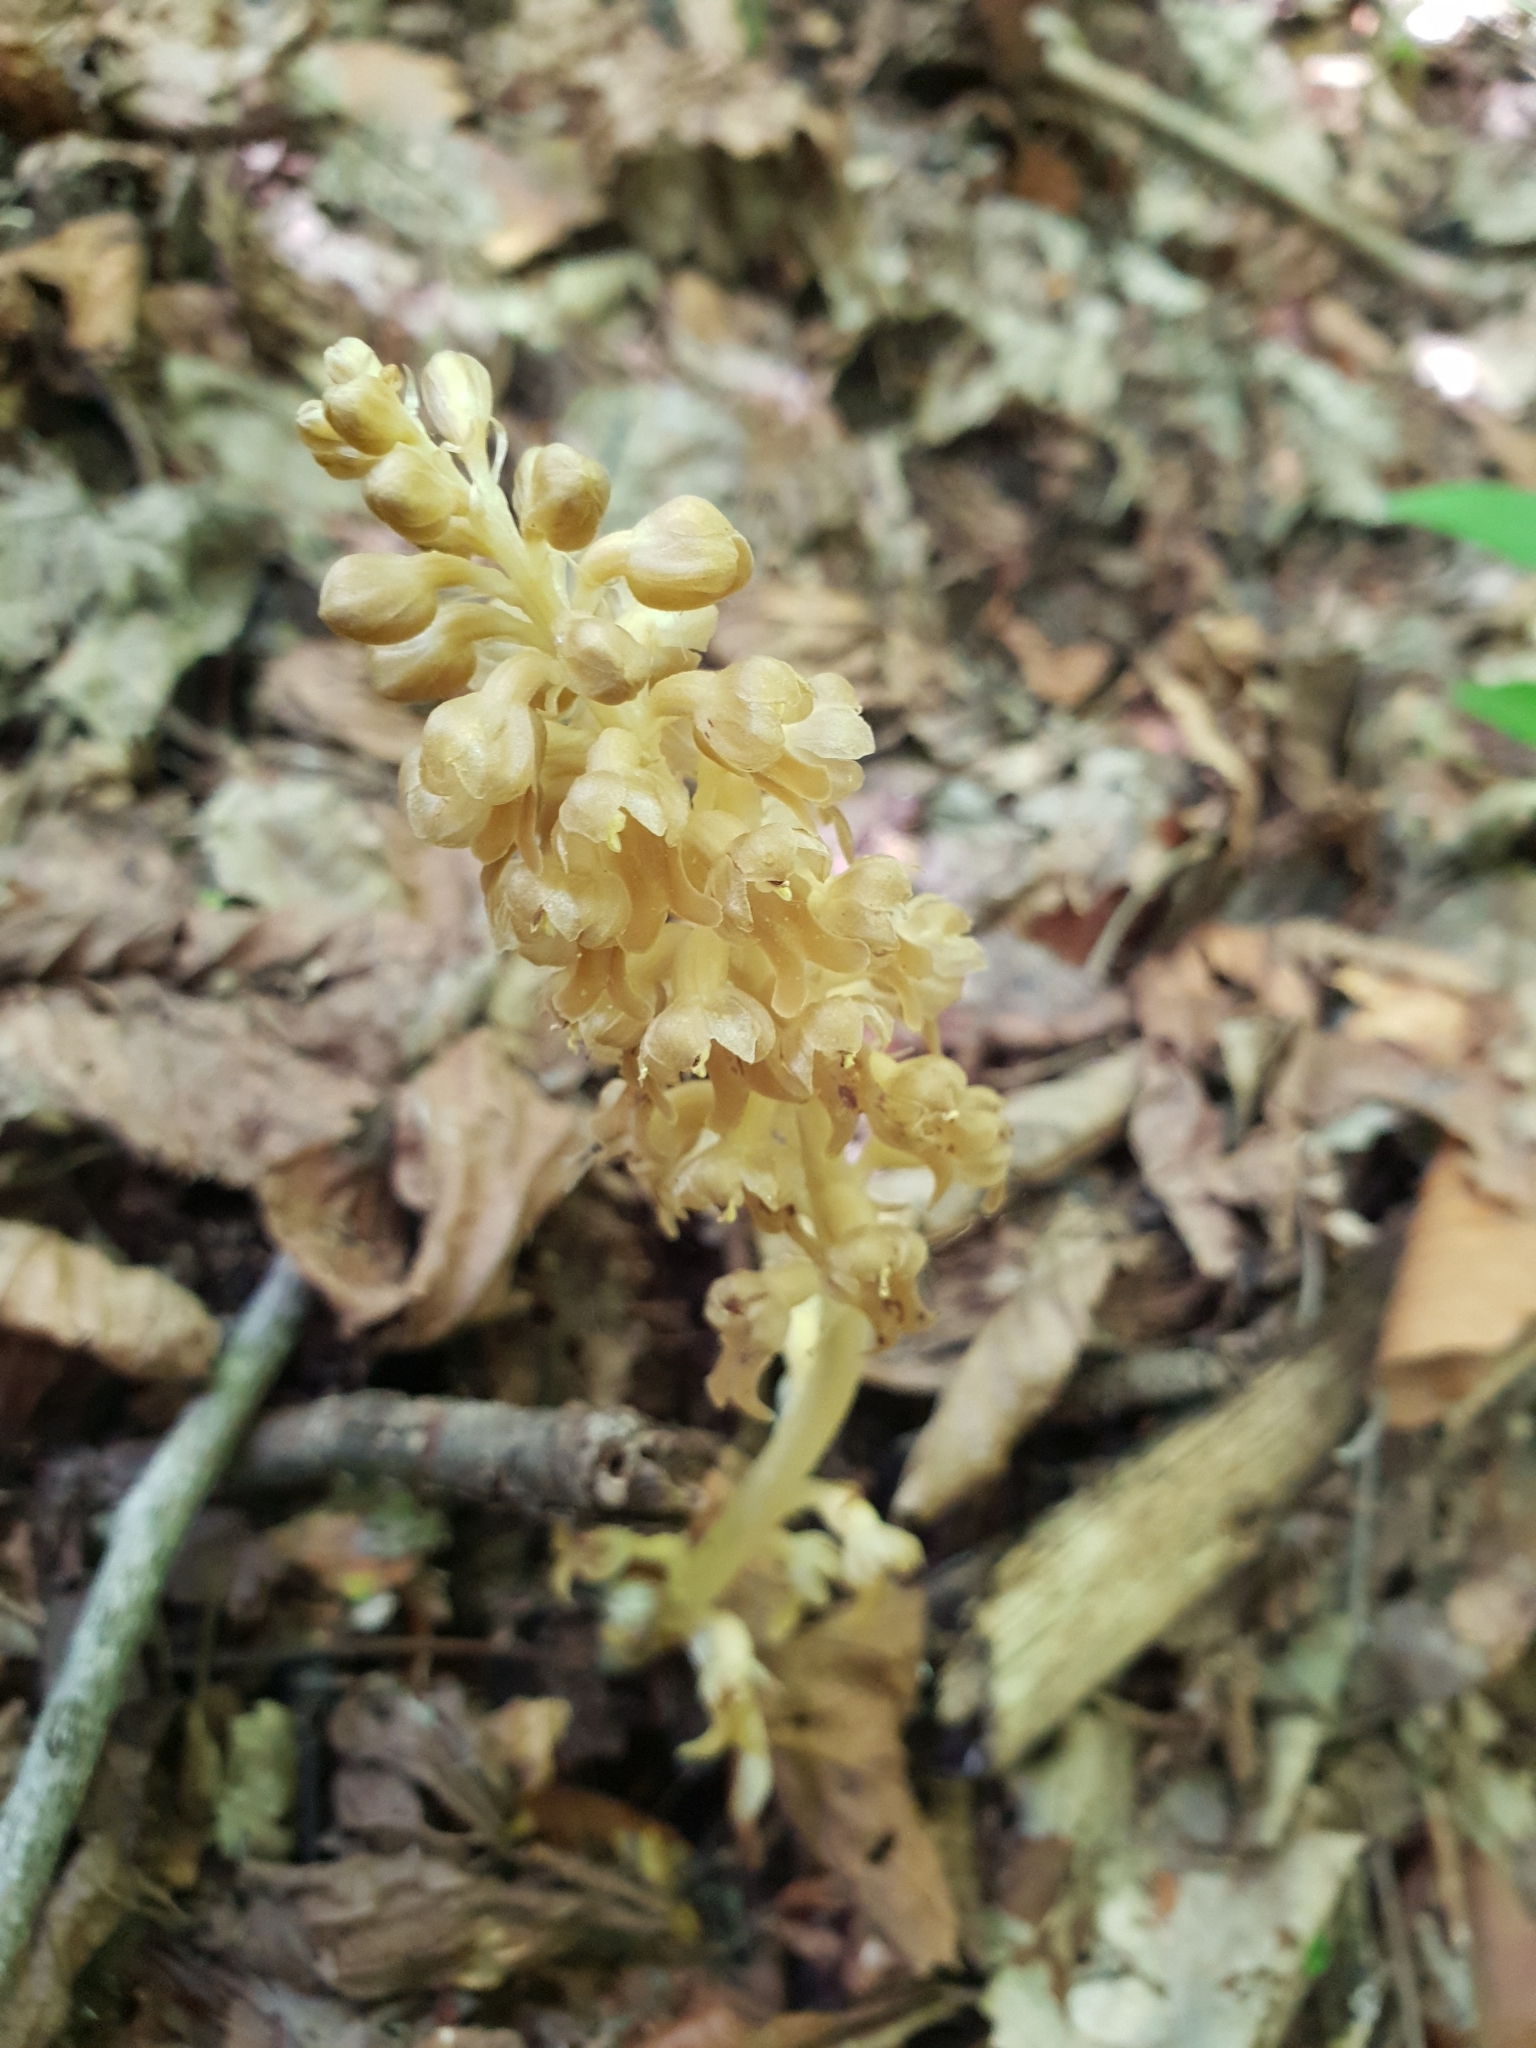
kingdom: Plantae
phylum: Tracheophyta
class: Liliopsida
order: Asparagales
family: Orchidaceae
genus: Neottia
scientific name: Neottia nidus-avis
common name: Bird's-nest orchid
